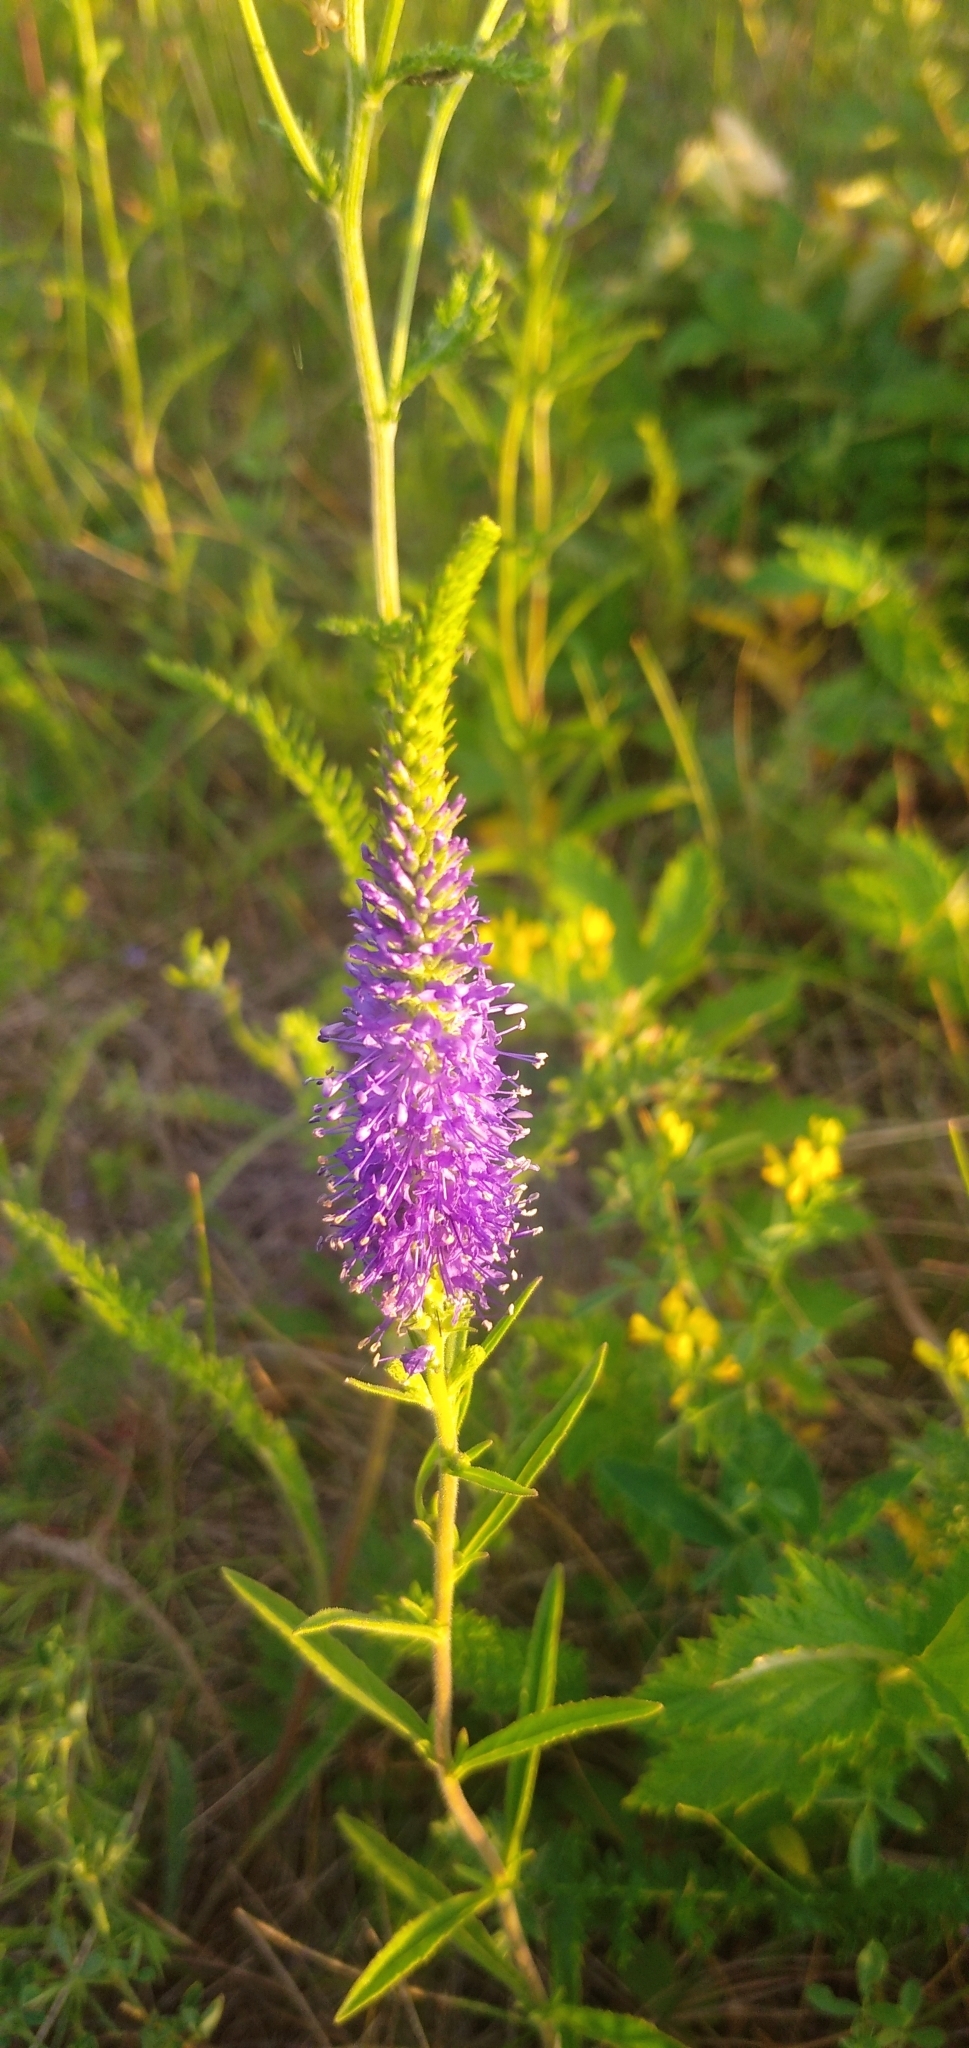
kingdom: Plantae
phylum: Tracheophyta
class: Magnoliopsida
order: Lamiales
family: Plantaginaceae
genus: Veronica
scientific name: Veronica spicata
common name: Spiked speedwell
